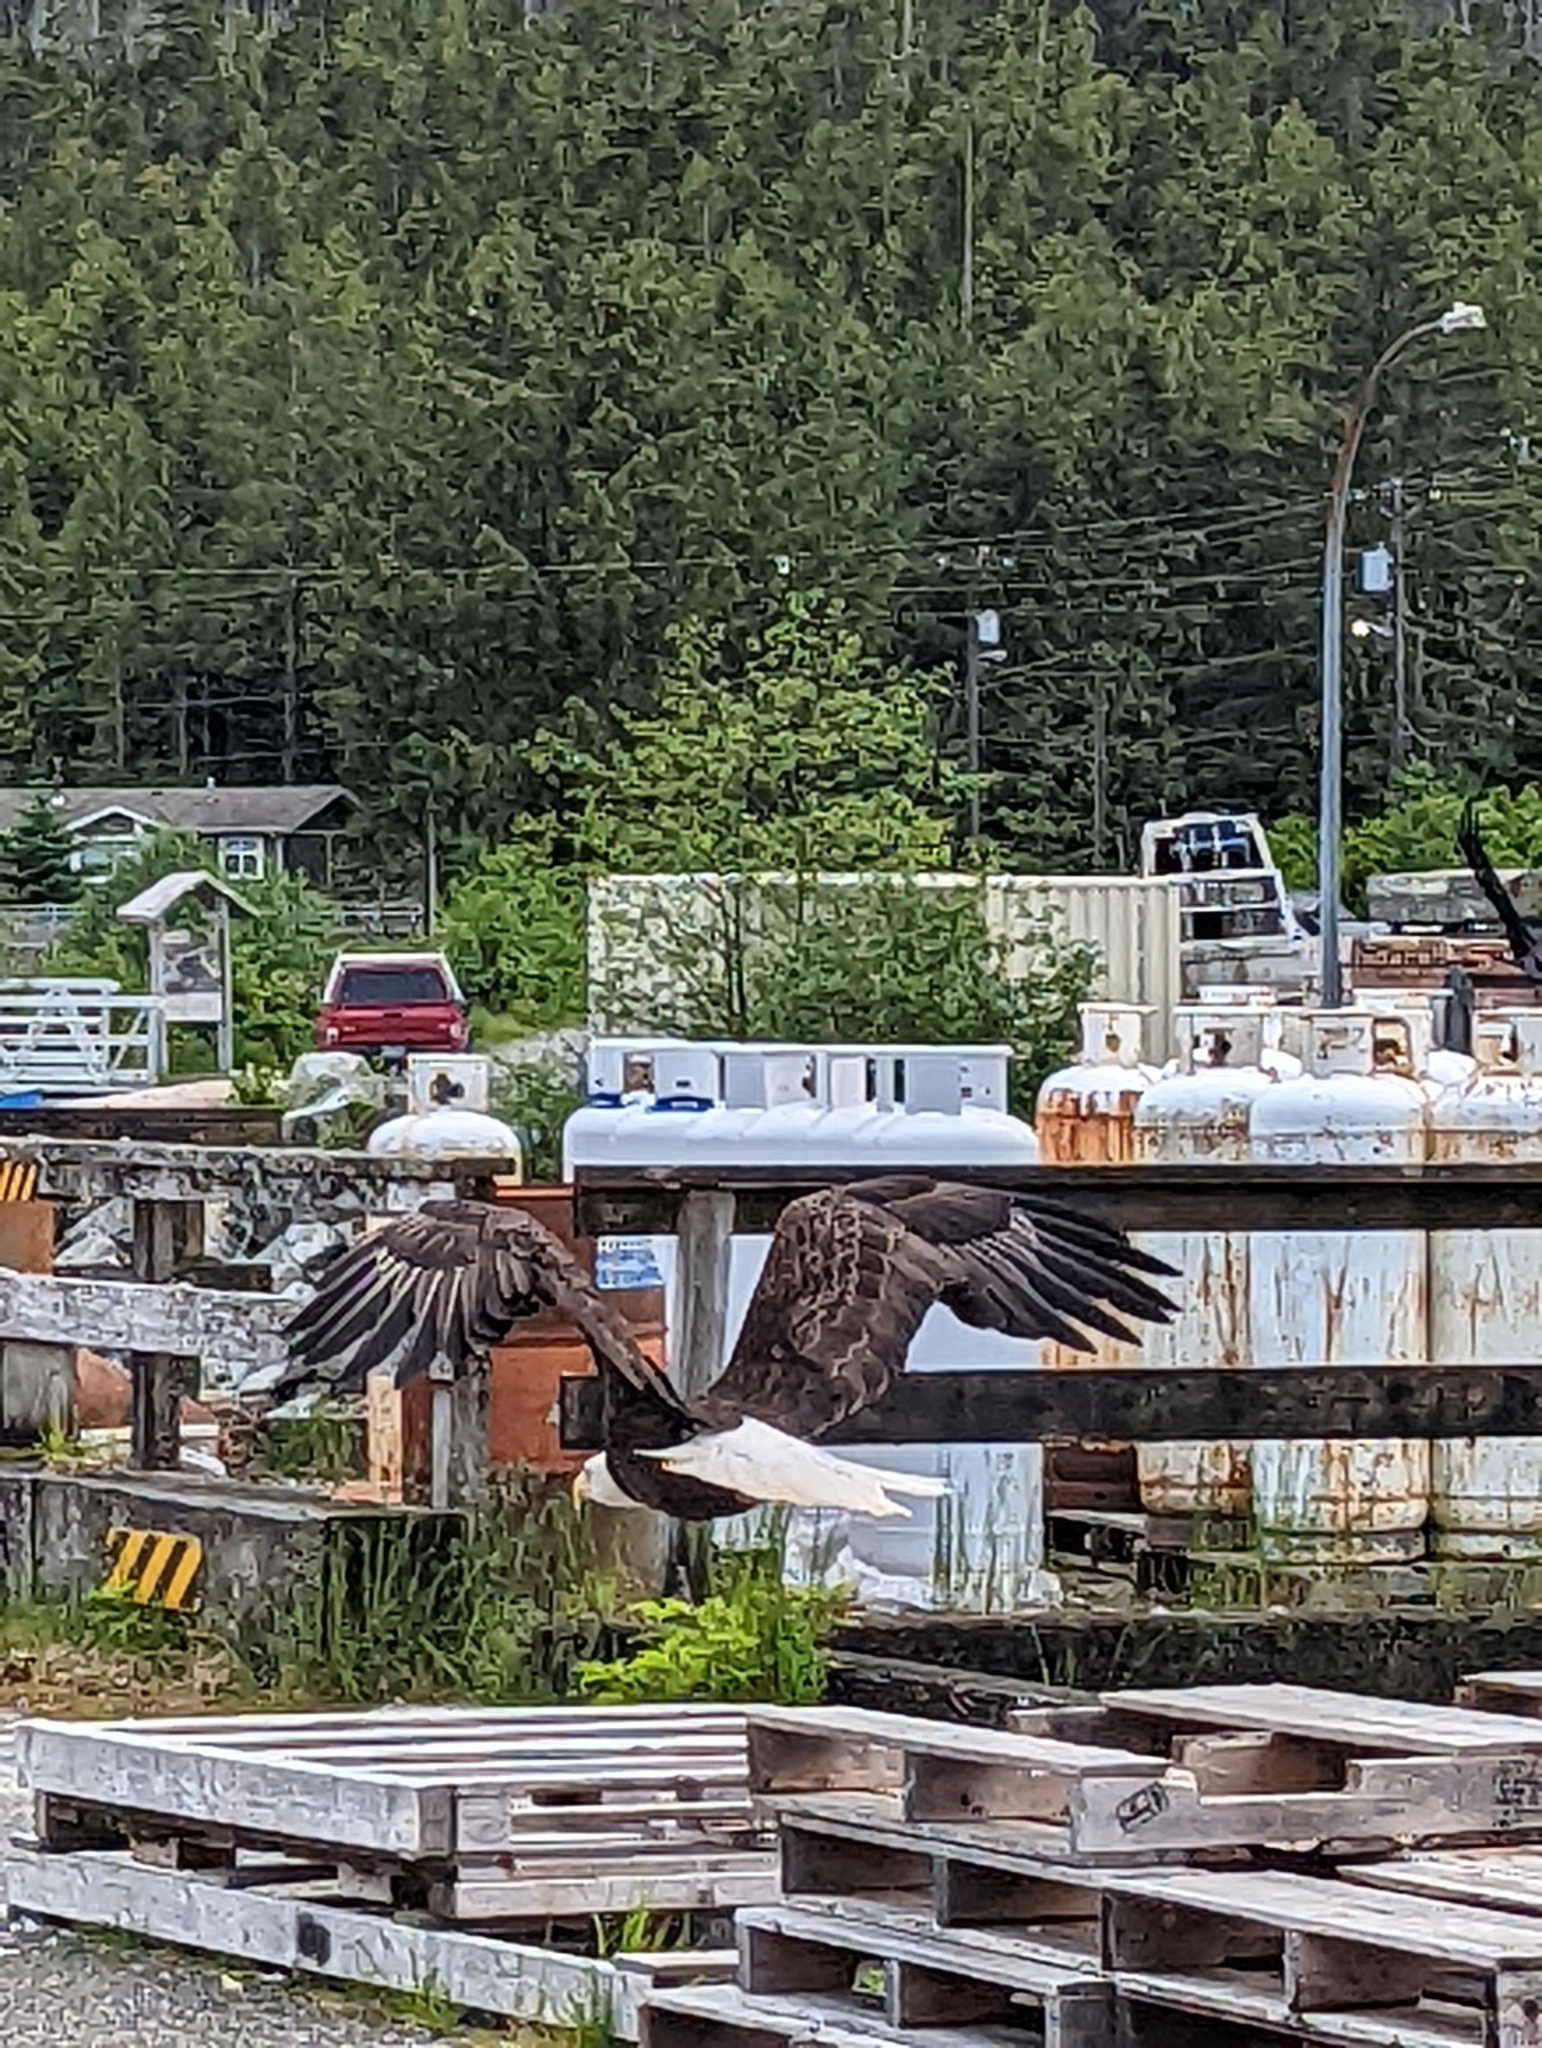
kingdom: Animalia
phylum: Chordata
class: Aves
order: Accipitriformes
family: Accipitridae
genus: Haliaeetus
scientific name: Haliaeetus leucocephalus
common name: Bald eagle
